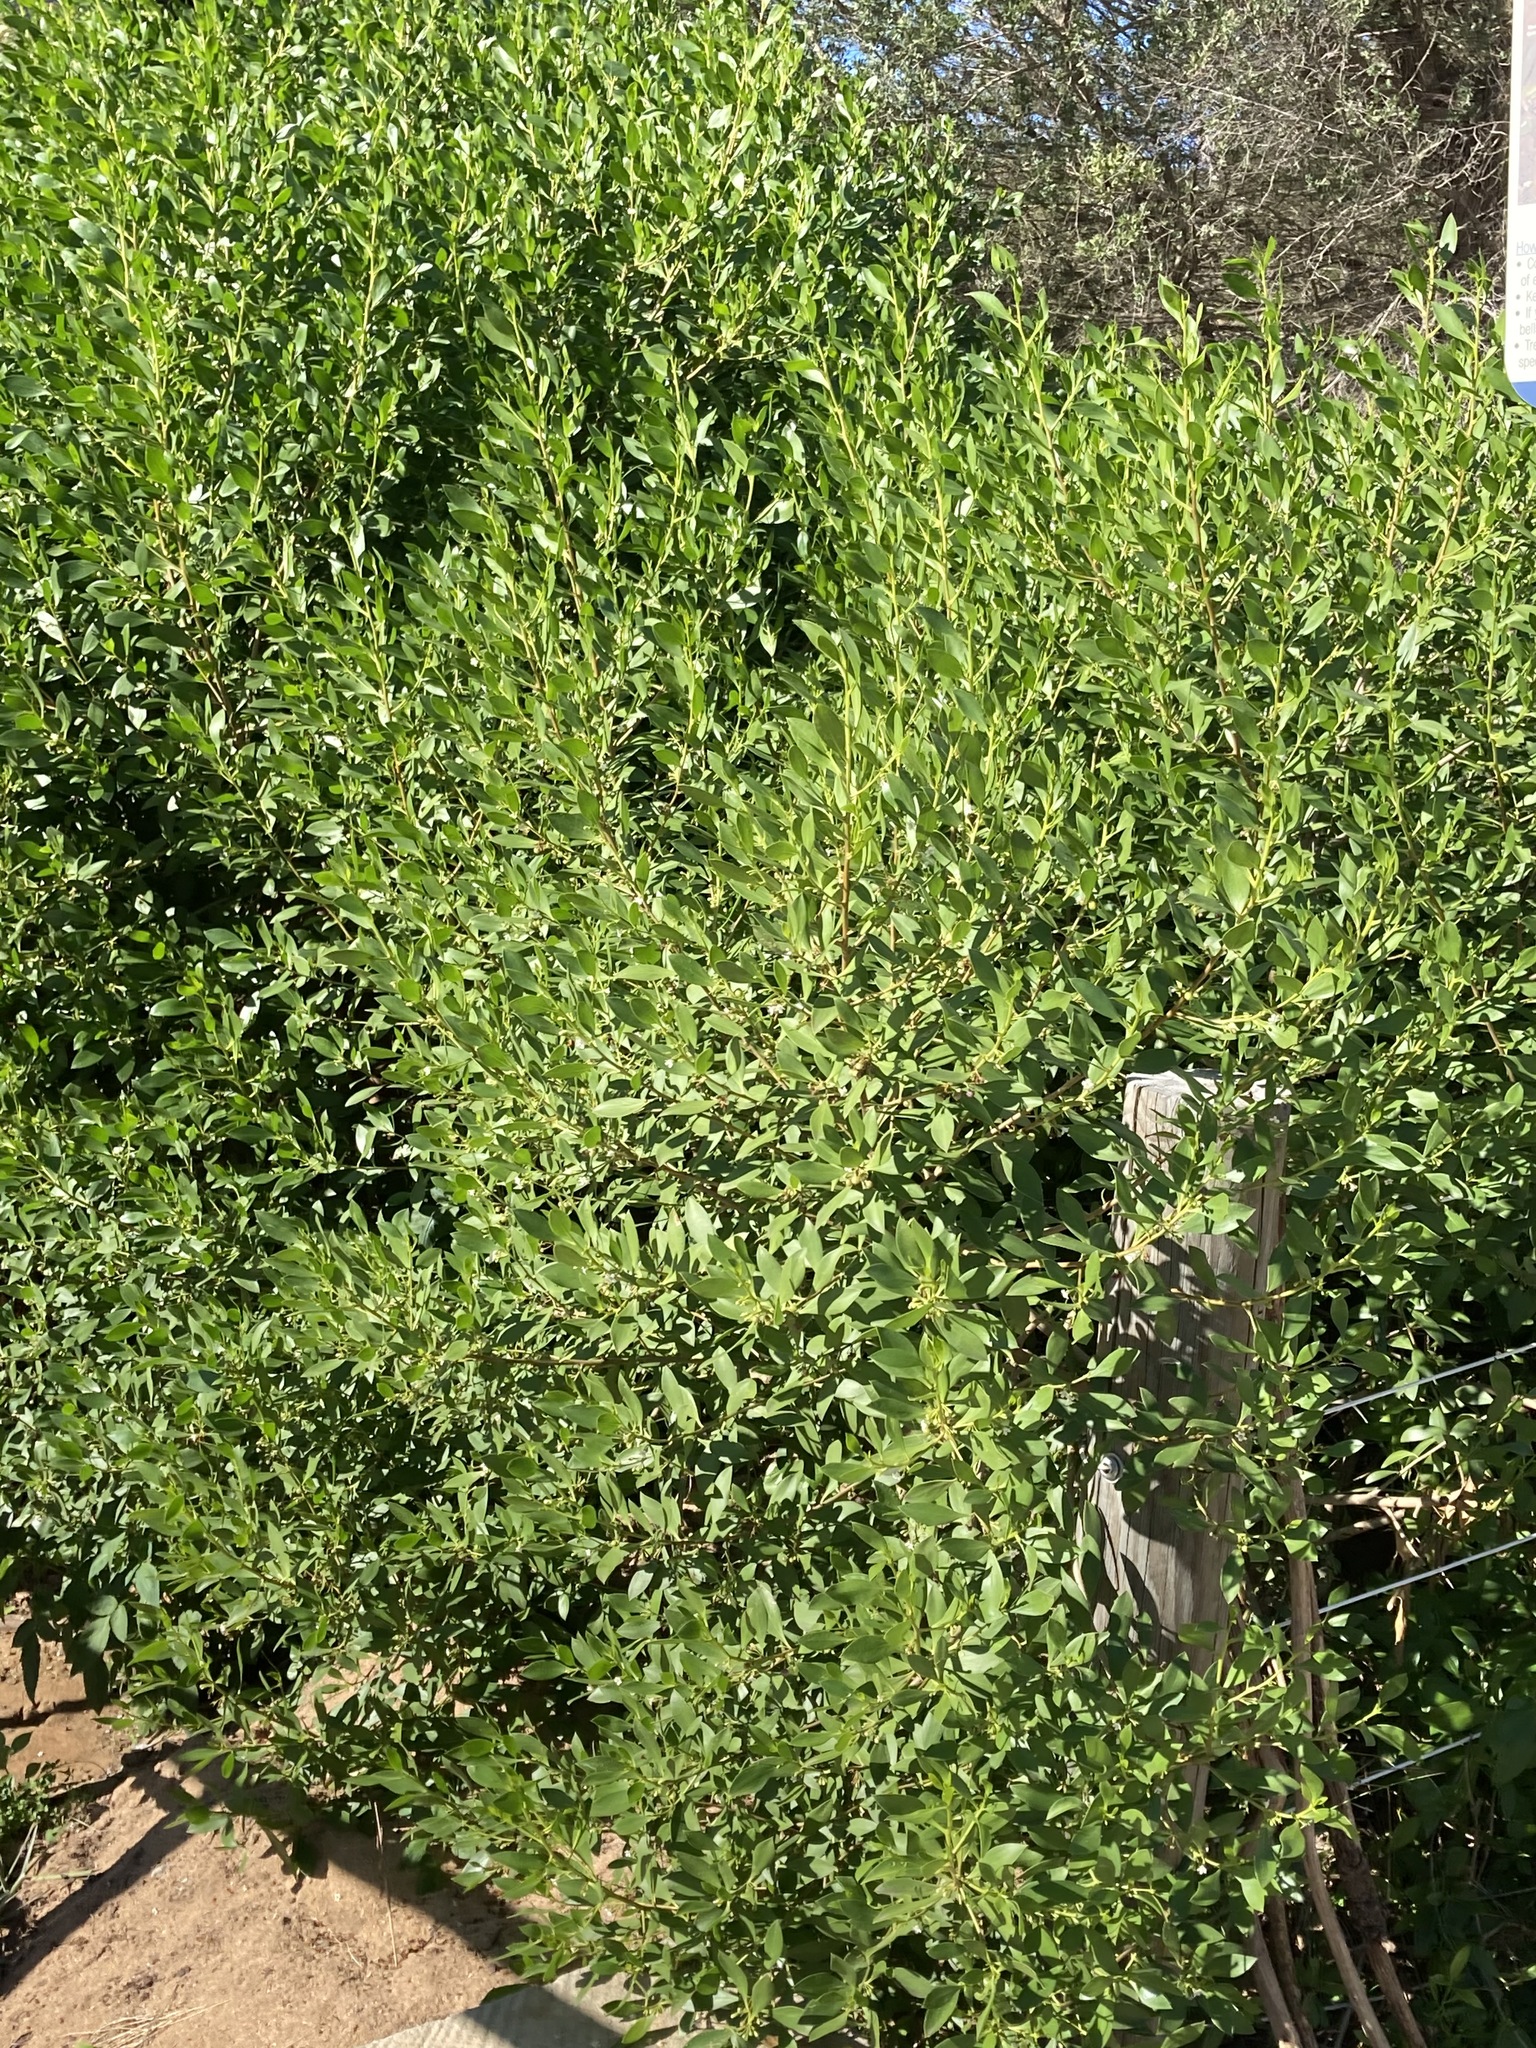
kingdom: Plantae
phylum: Tracheophyta
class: Magnoliopsida
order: Lamiales
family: Scrophulariaceae
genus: Myoporum
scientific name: Myoporum boninense
